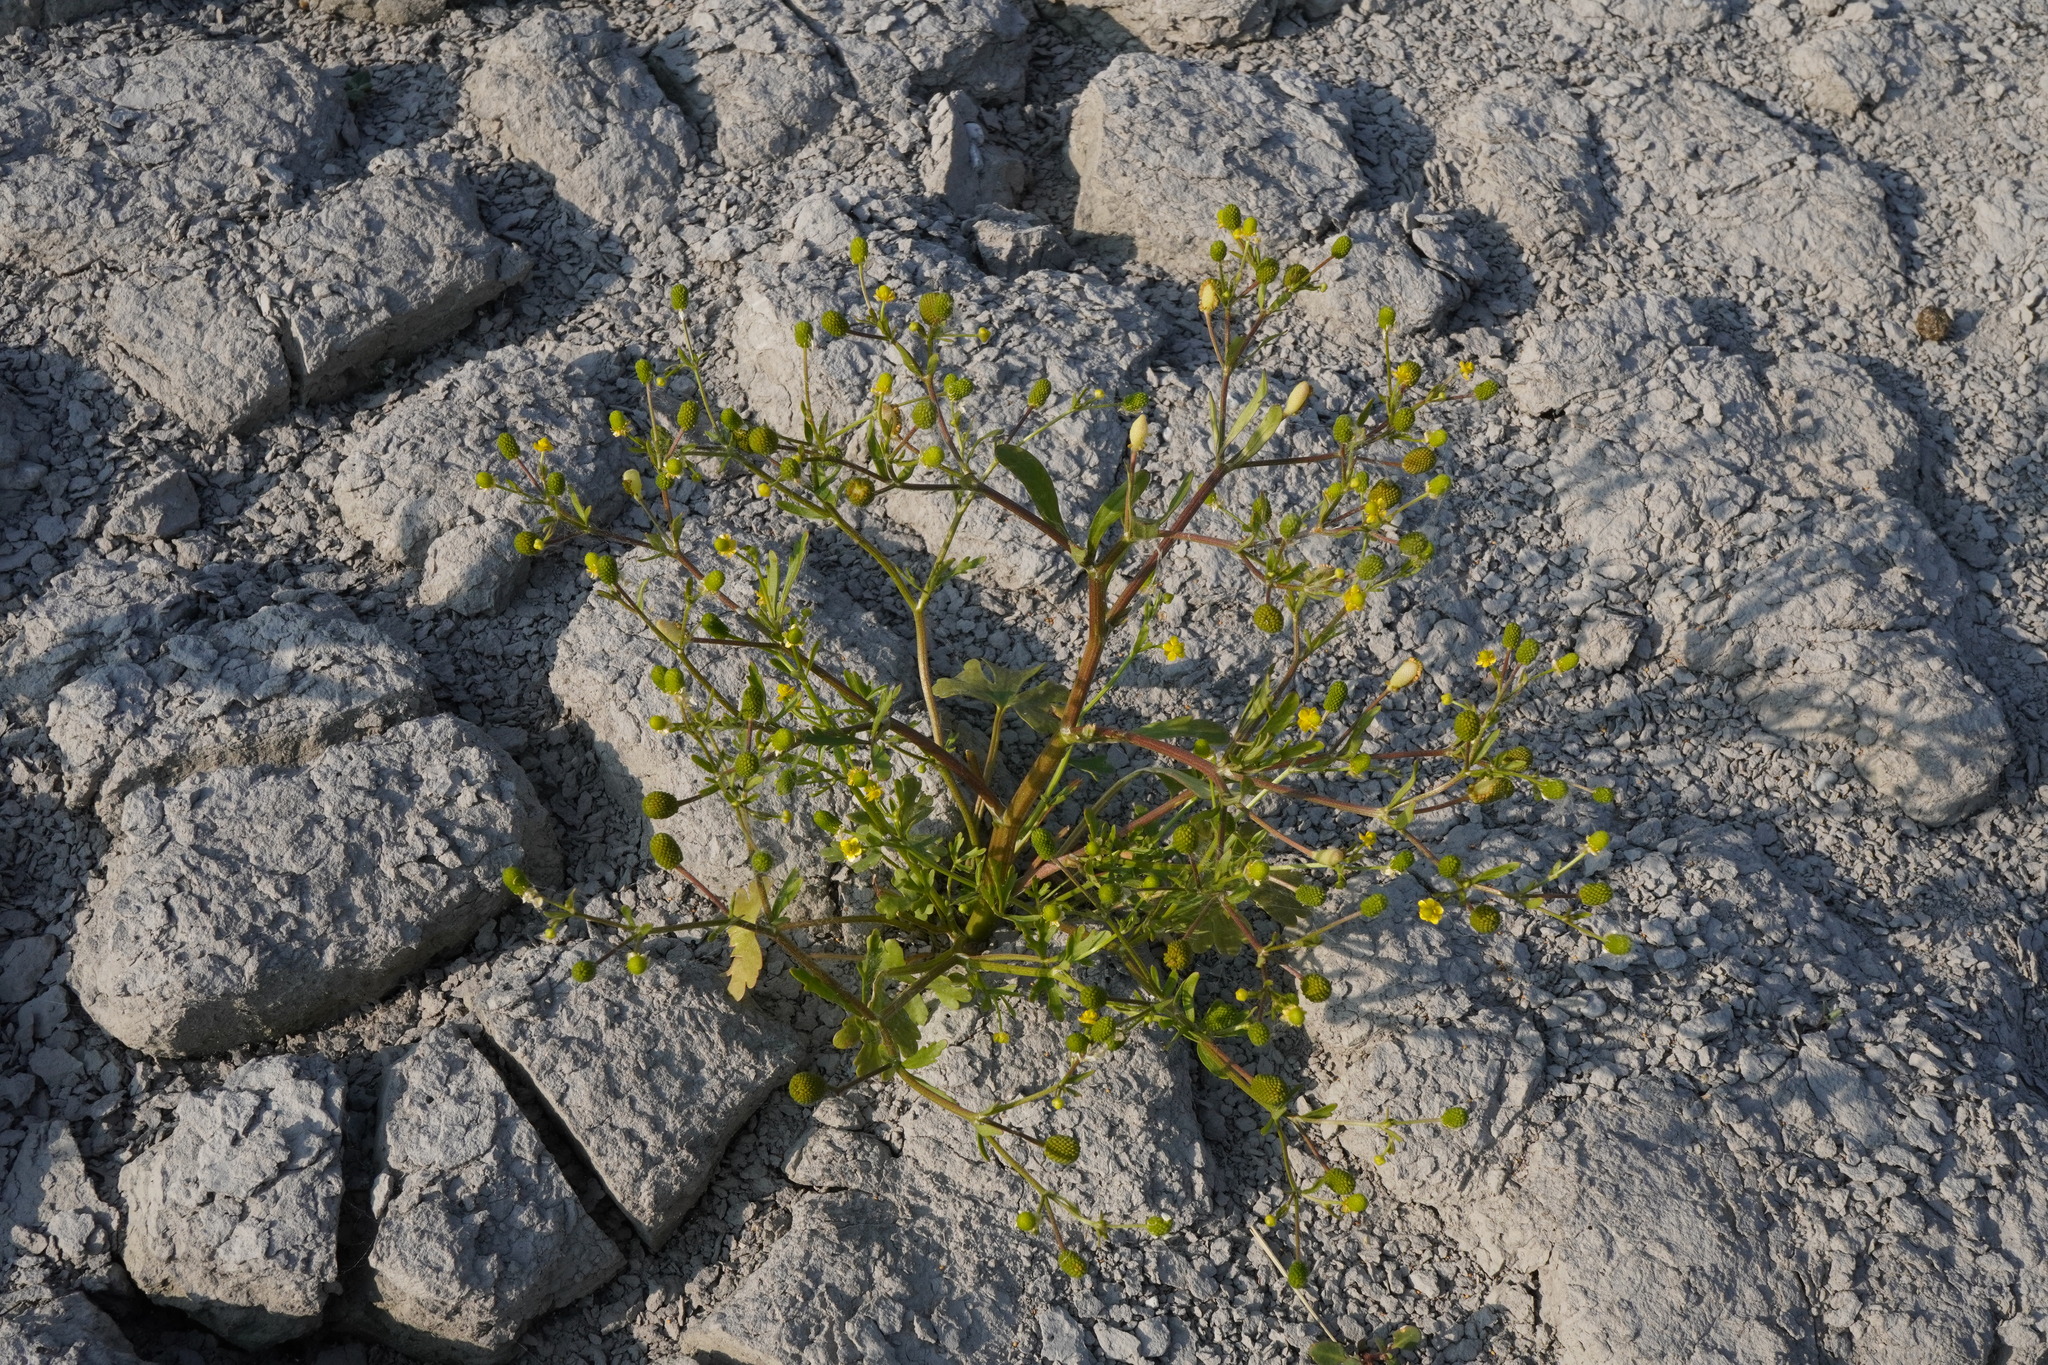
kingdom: Plantae
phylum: Tracheophyta
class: Magnoliopsida
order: Ranunculales
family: Ranunculaceae
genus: Ranunculus
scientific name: Ranunculus sceleratus
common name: Celery-leaved buttercup
